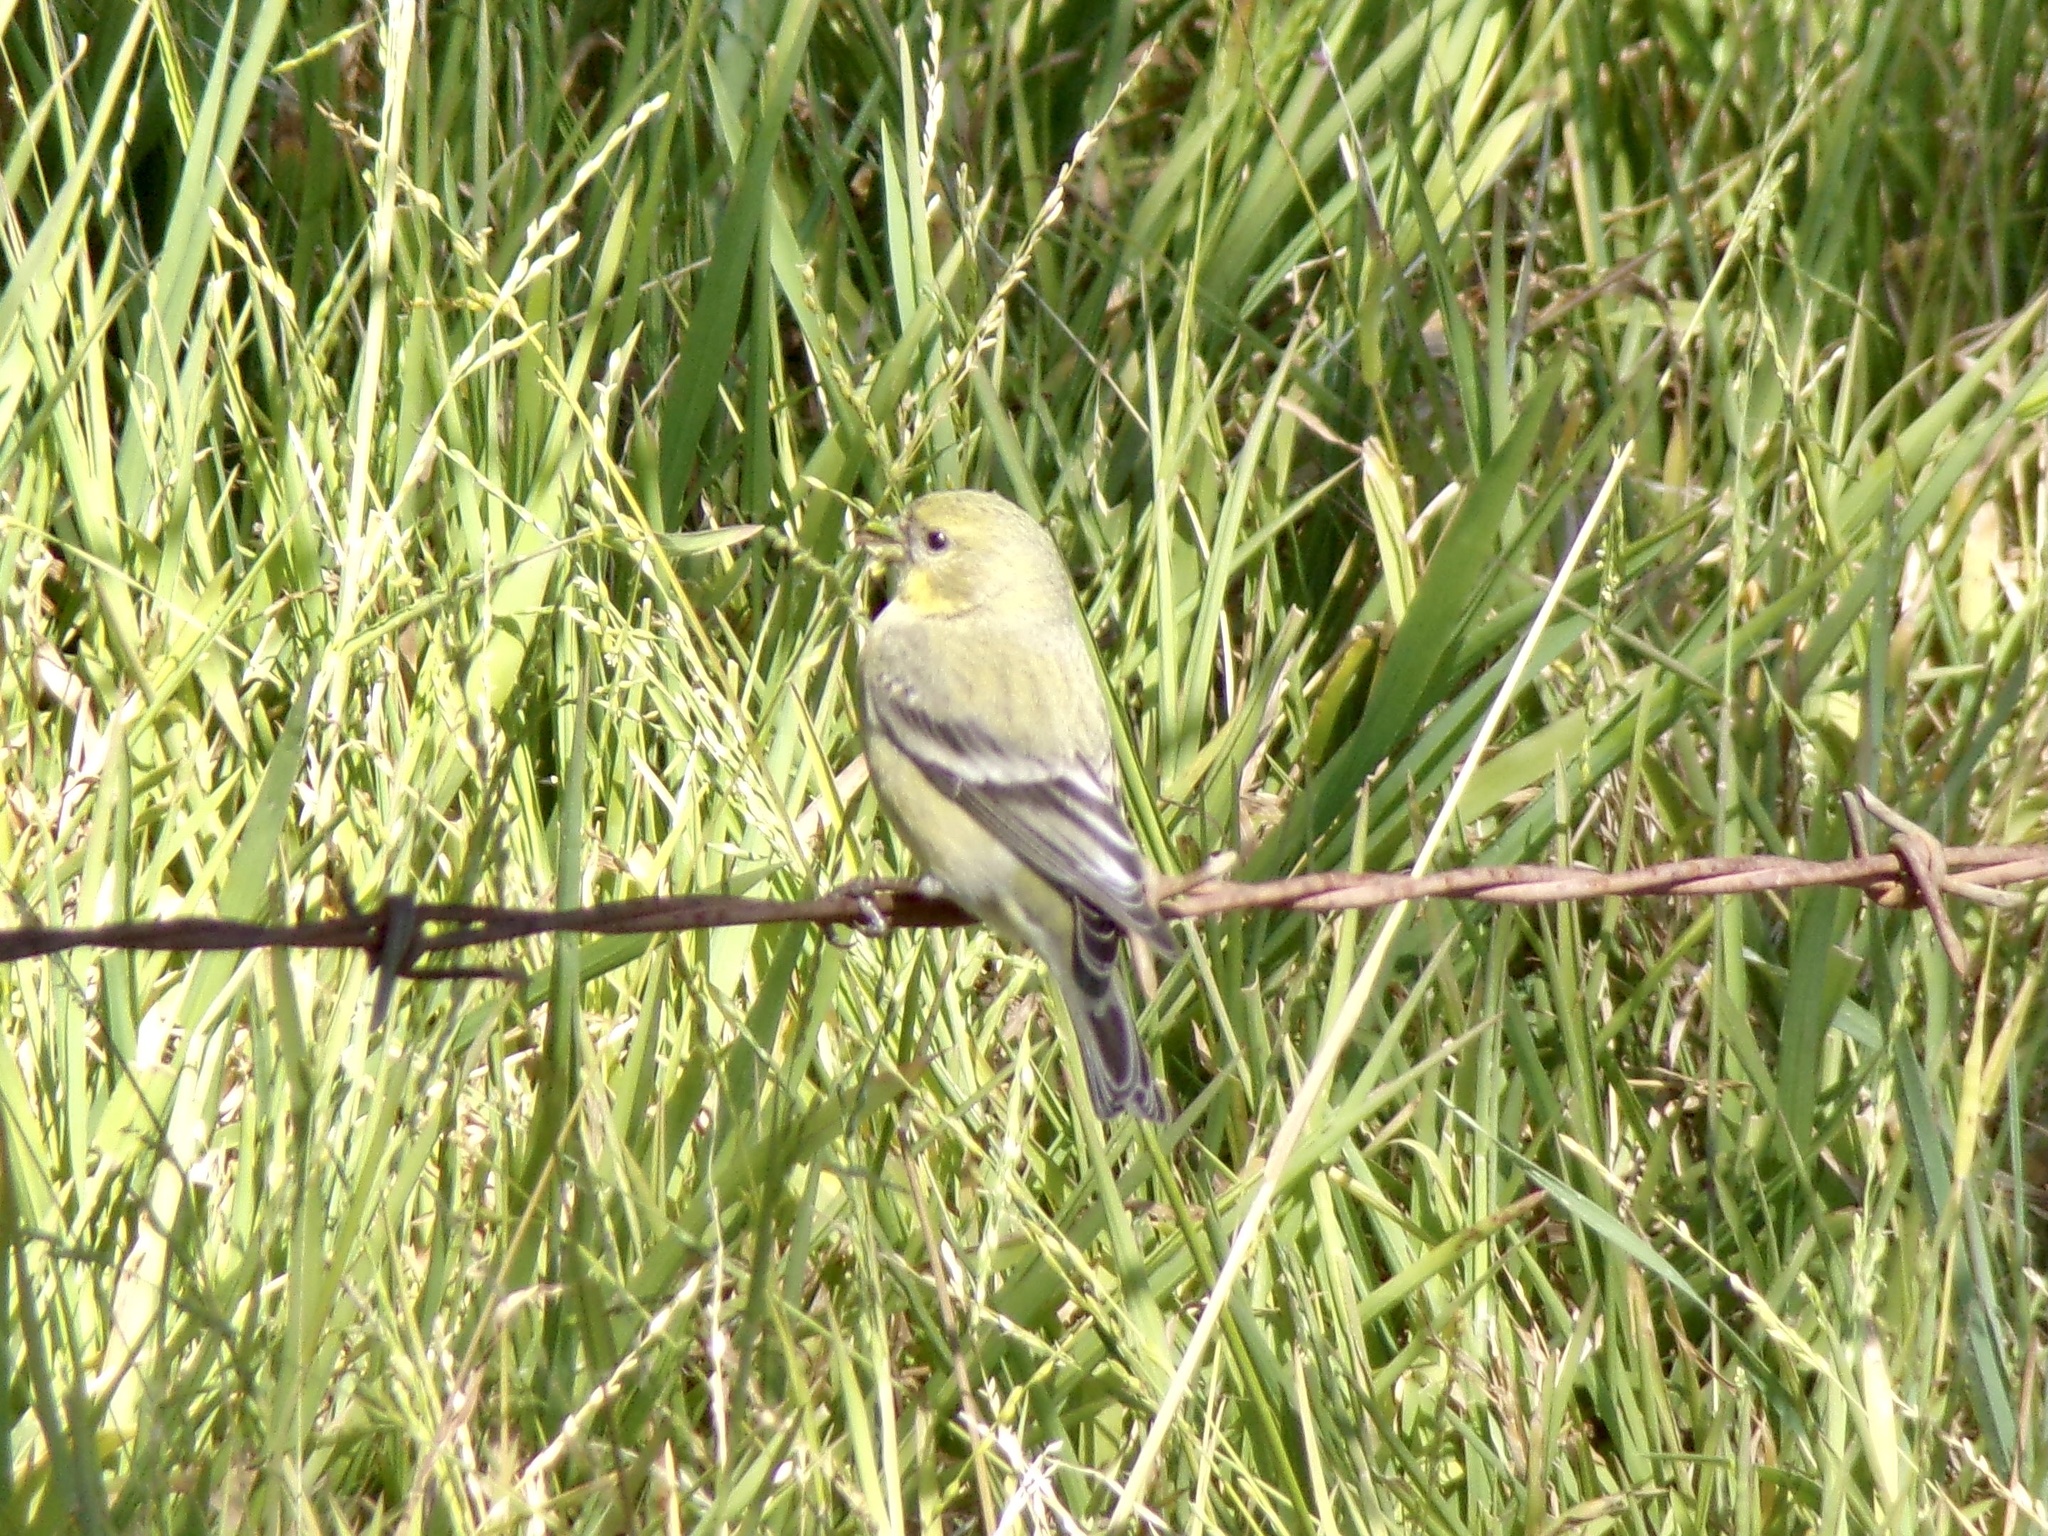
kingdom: Animalia
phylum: Chordata
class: Aves
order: Passeriformes
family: Fringillidae
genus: Spinus
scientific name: Spinus psaltria
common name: Lesser goldfinch
